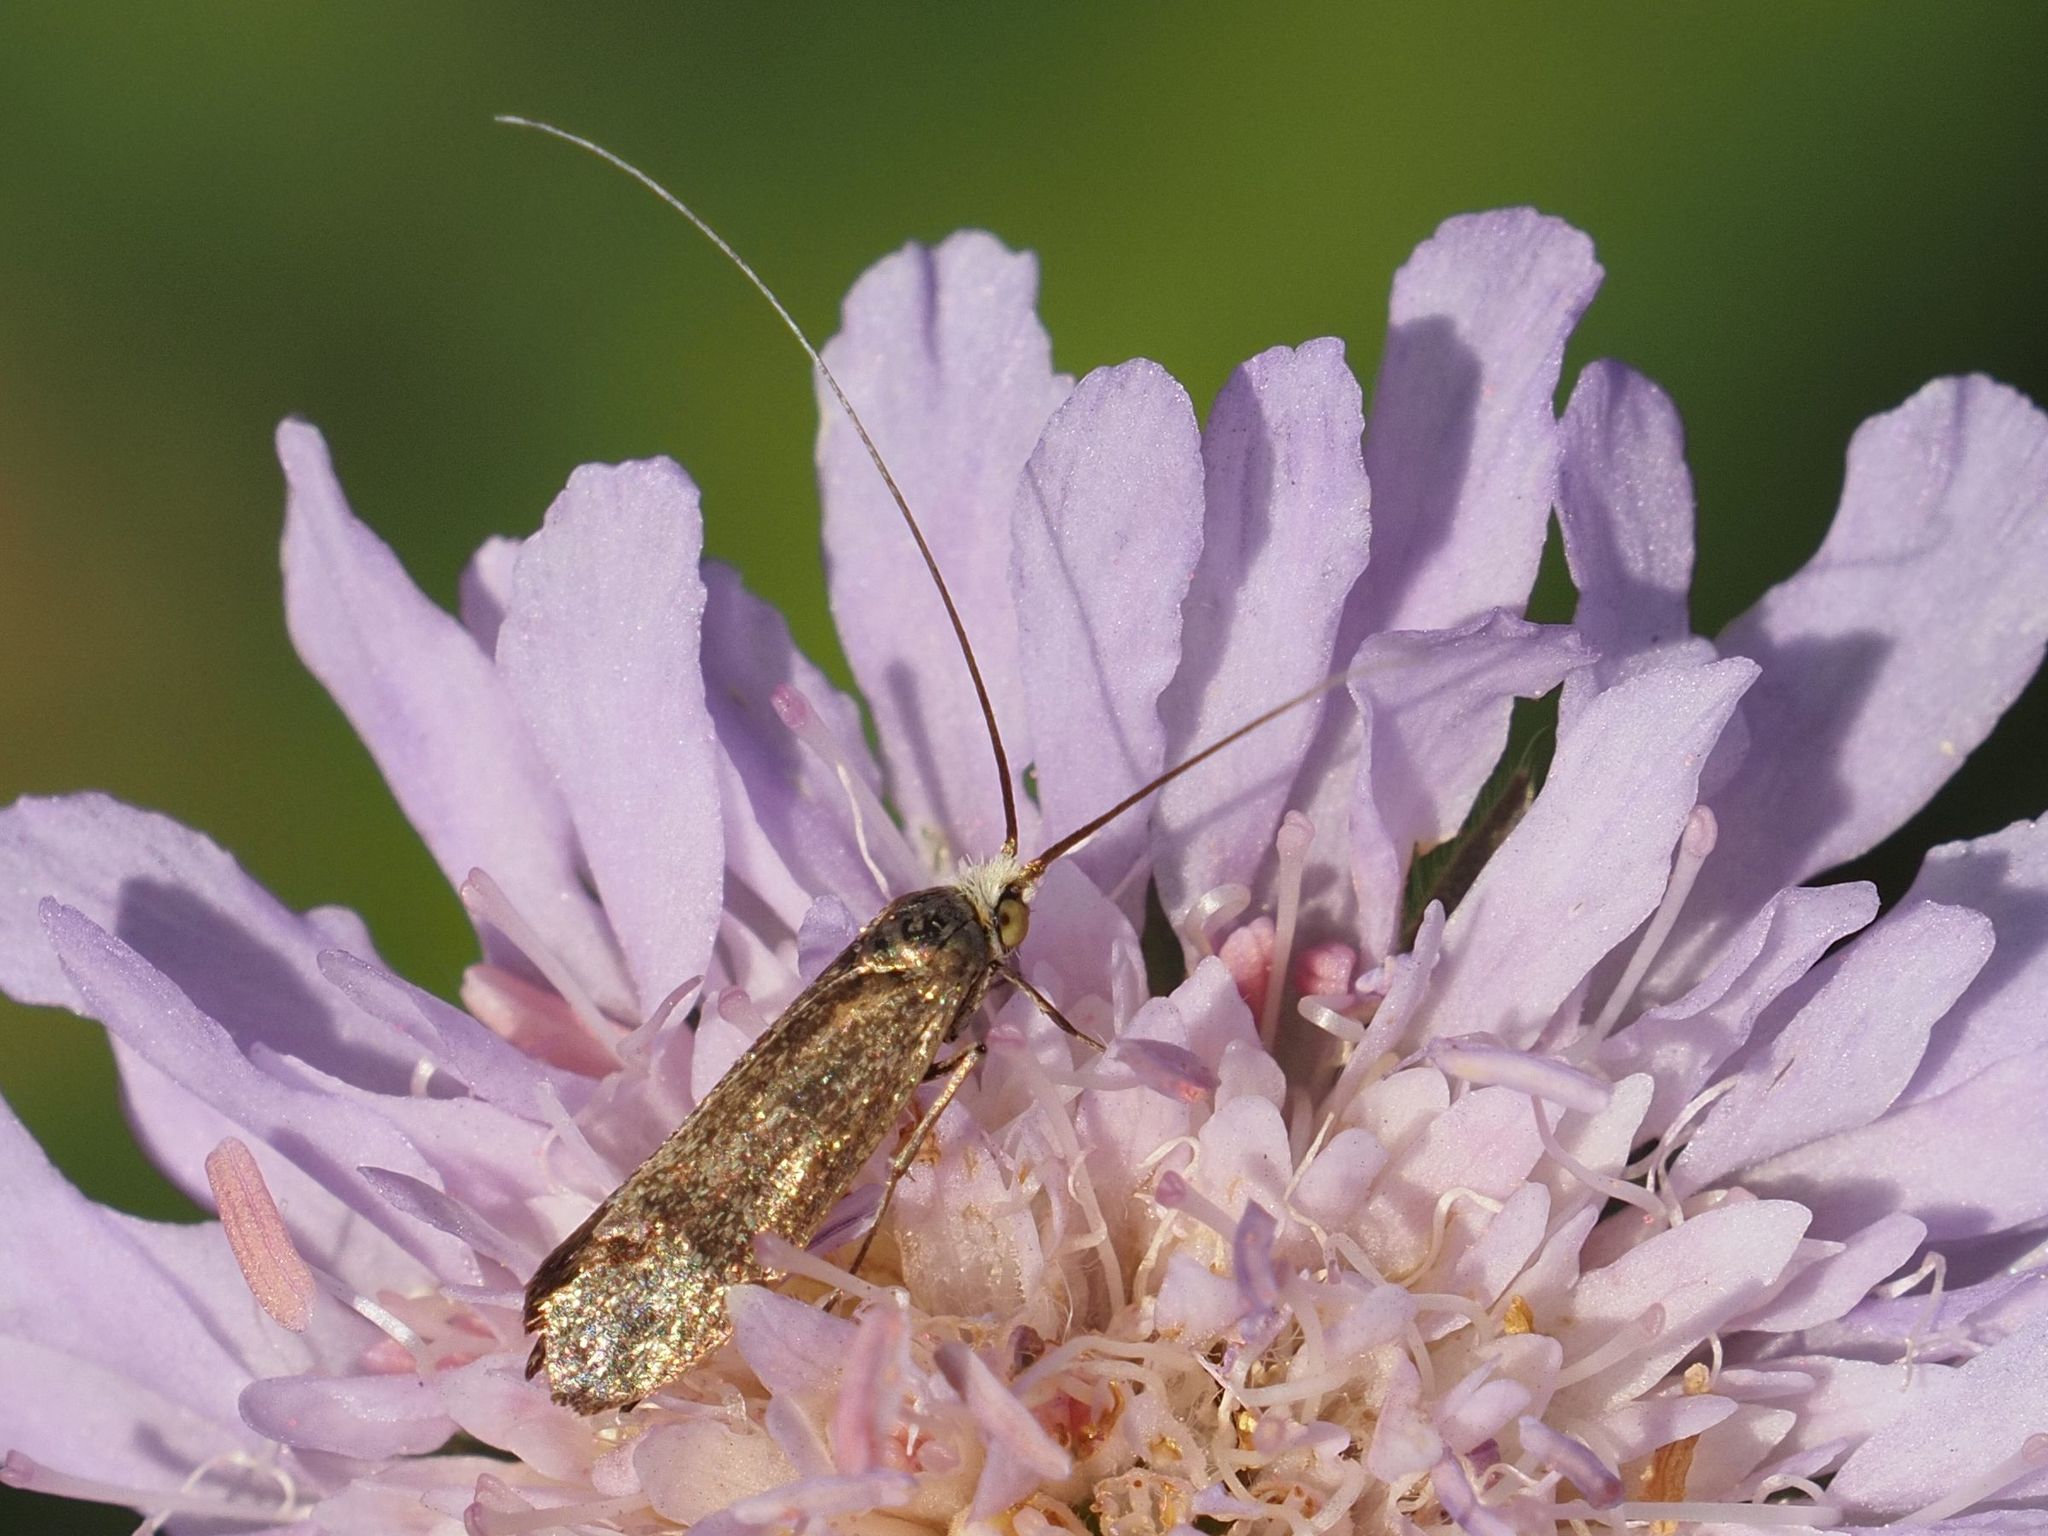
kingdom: Animalia
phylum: Arthropoda
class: Insecta
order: Lepidoptera
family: Adelidae
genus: Nemophora
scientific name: Nemophora metallica
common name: Brassy long-horn
